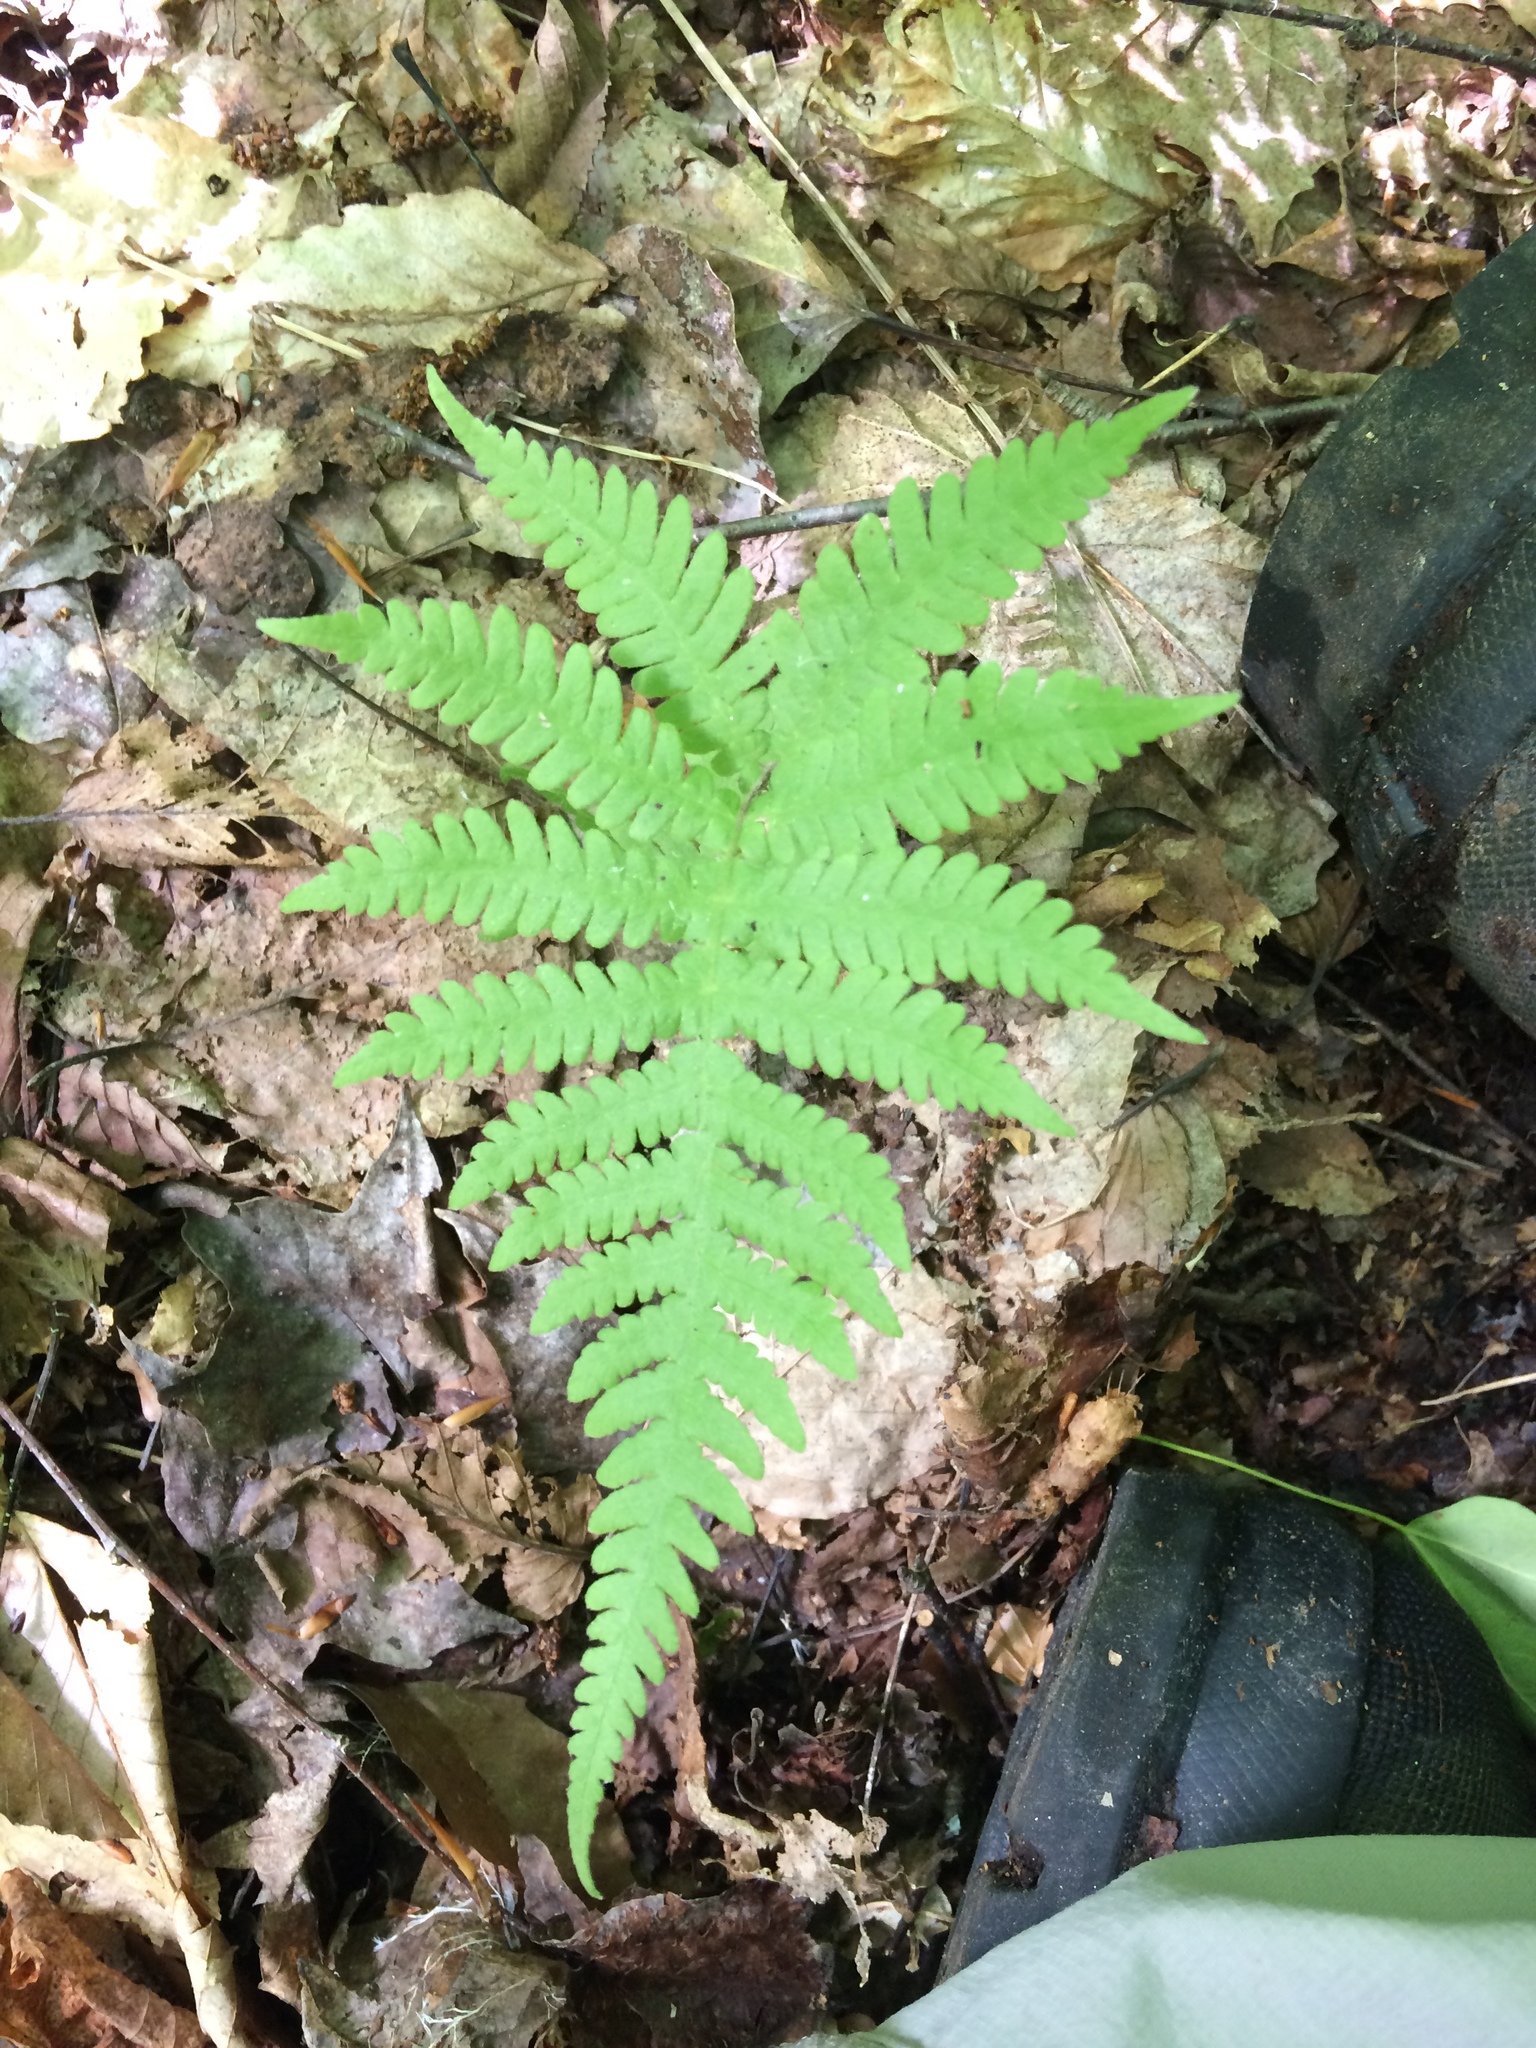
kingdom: Plantae
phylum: Tracheophyta
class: Polypodiopsida
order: Polypodiales
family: Thelypteridaceae
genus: Phegopteris
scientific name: Phegopteris connectilis
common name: Beech fern
